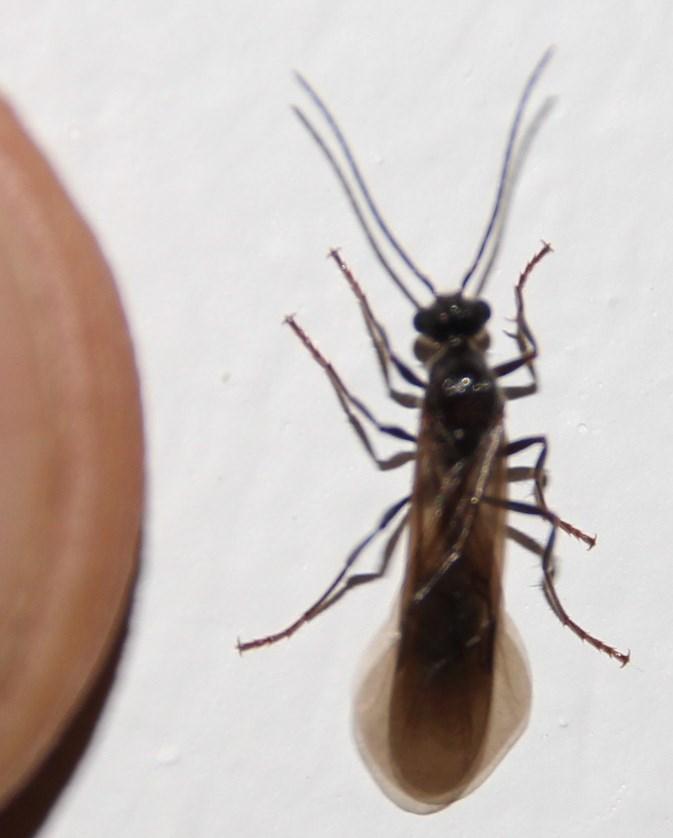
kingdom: Animalia
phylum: Arthropoda
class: Insecta
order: Hymenoptera
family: Formicidae
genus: Myrmicaria
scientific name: Myrmicaria nigra
